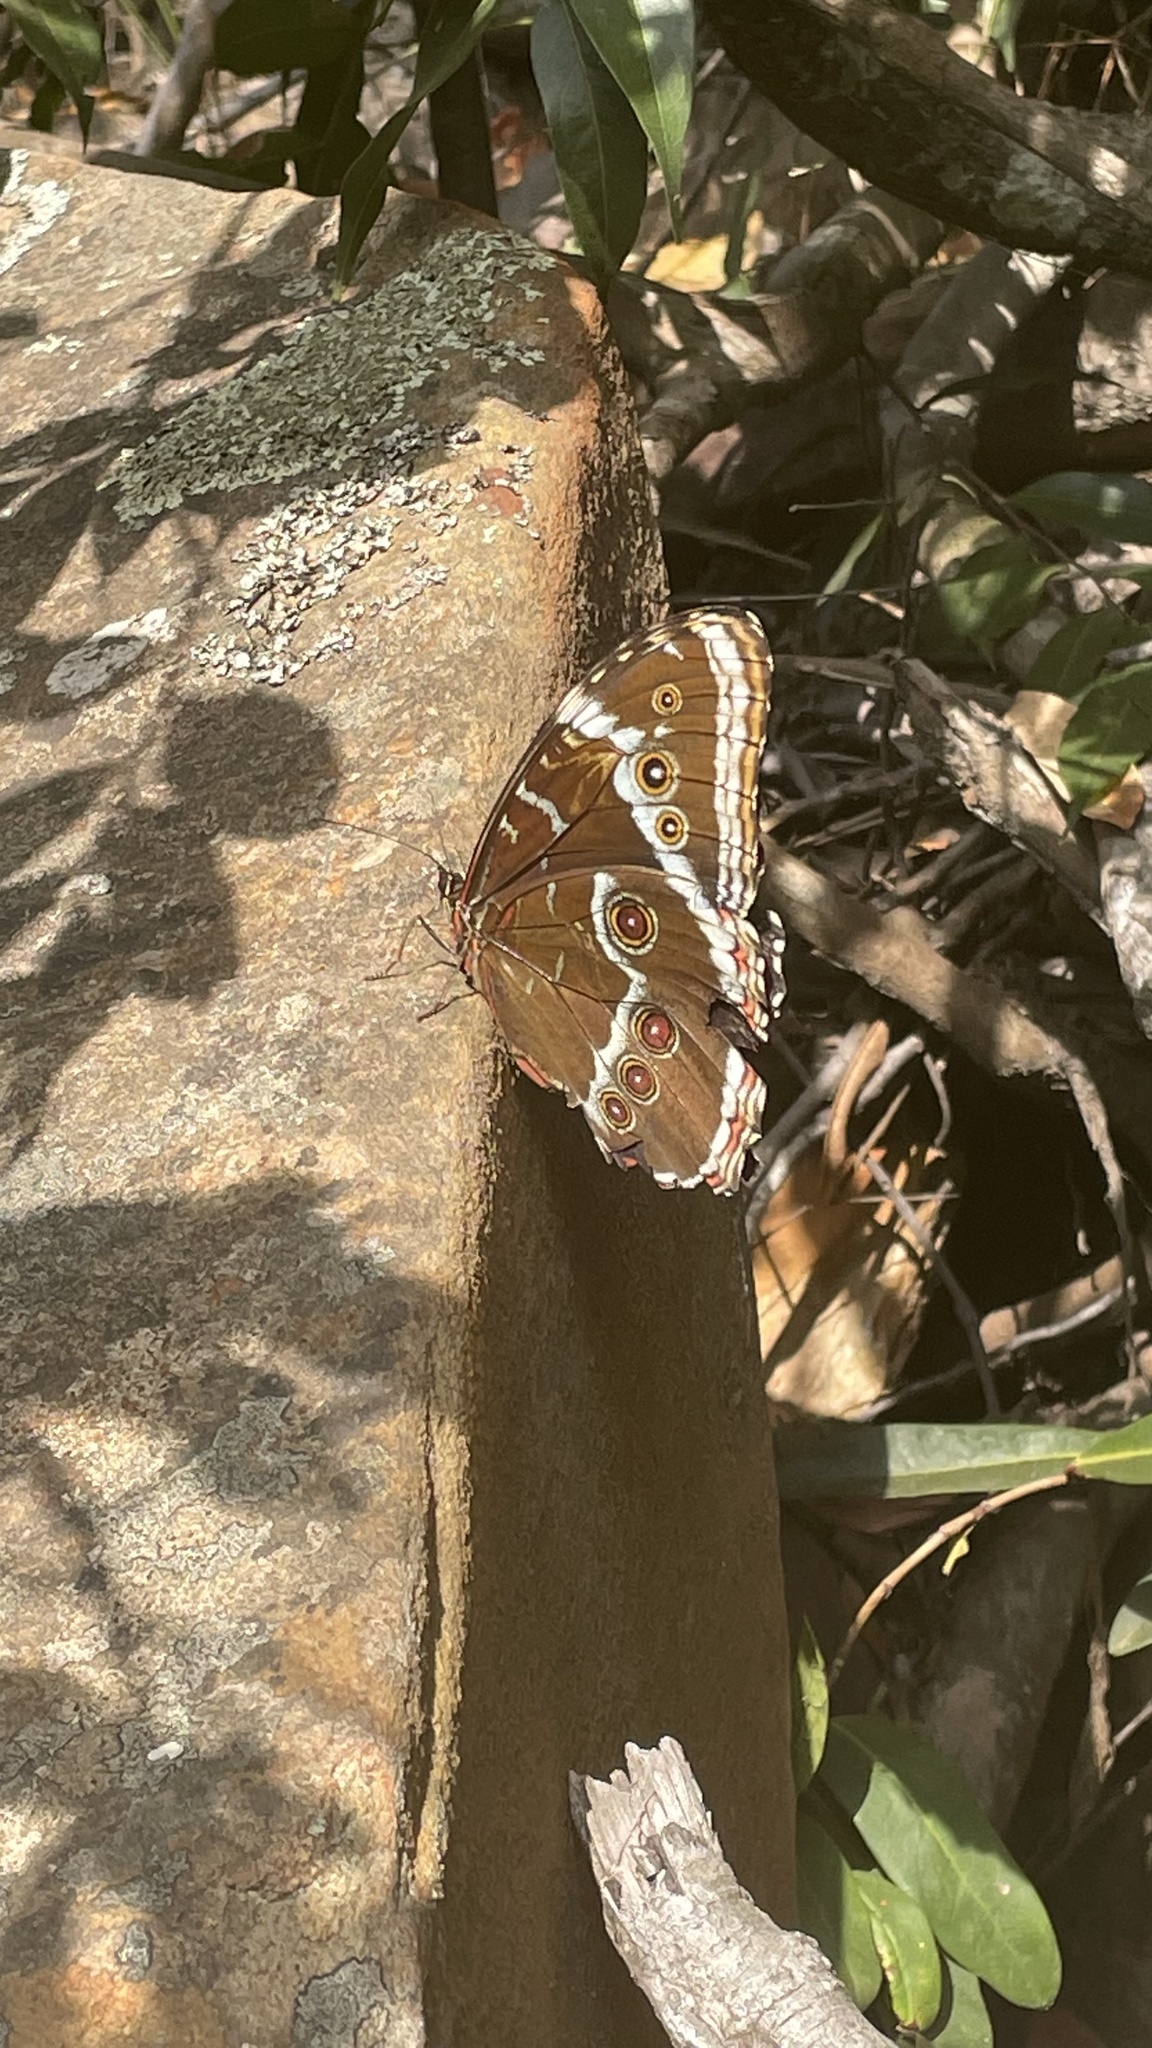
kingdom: Animalia
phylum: Arthropoda
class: Insecta
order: Lepidoptera
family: Nymphalidae
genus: Morpho
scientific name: Morpho helenor
